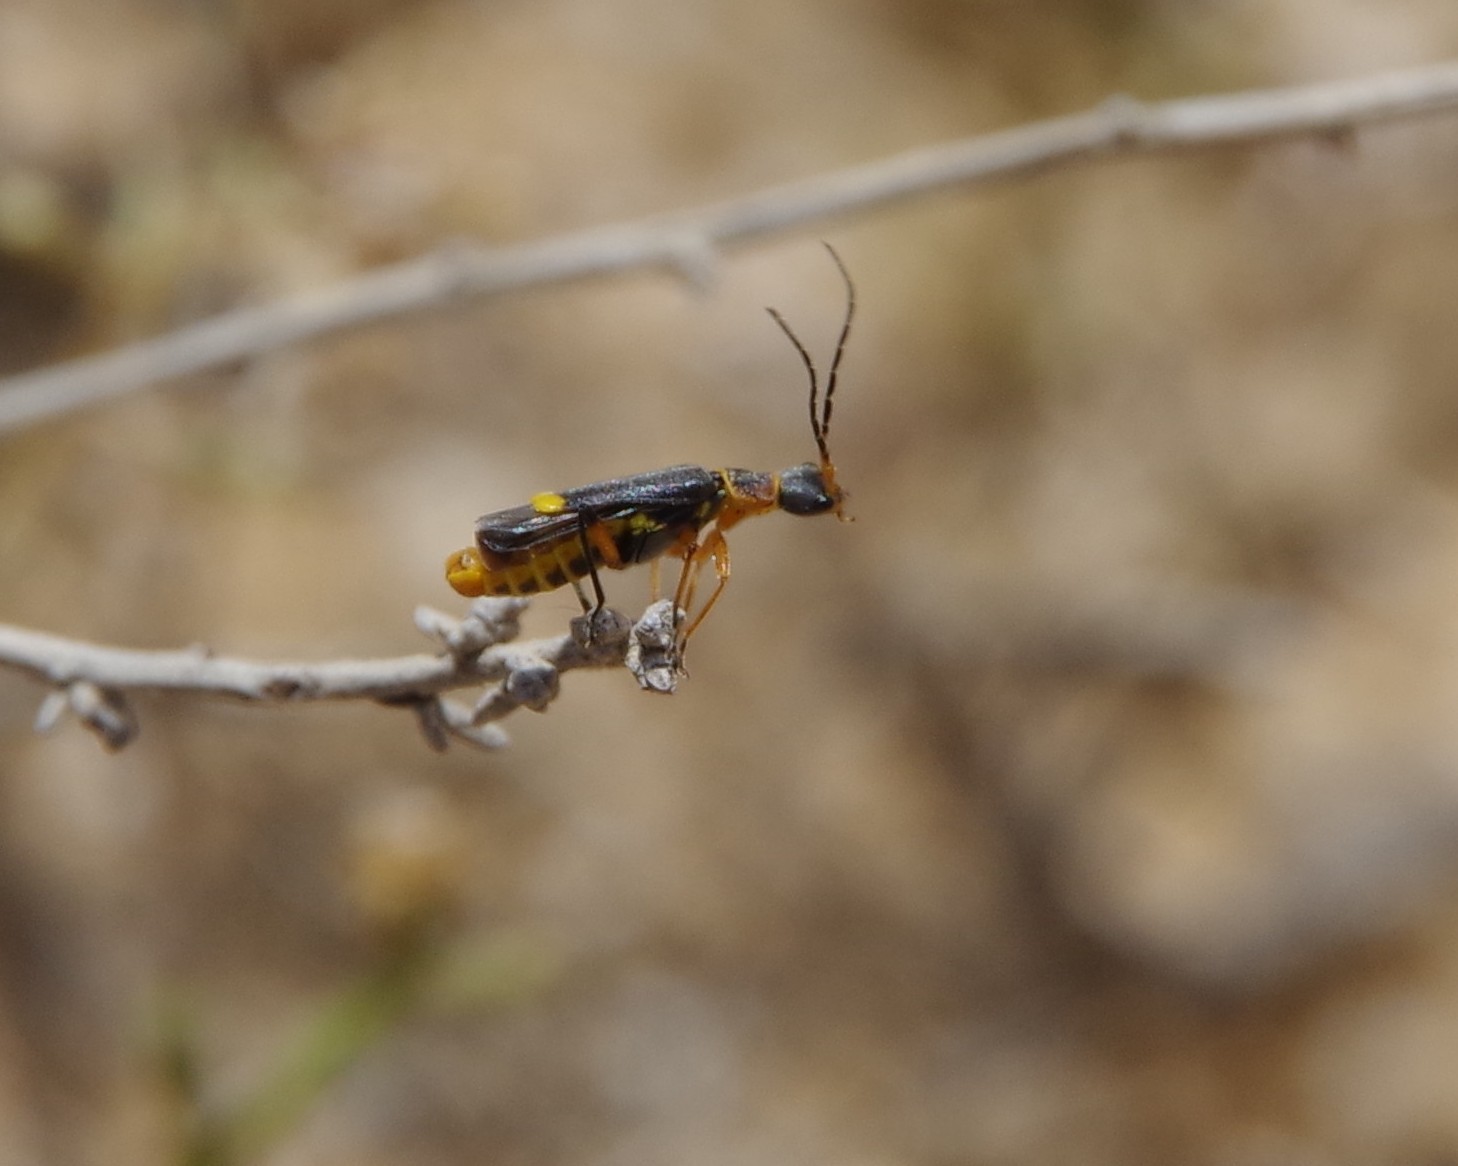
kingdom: Animalia
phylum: Arthropoda
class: Insecta
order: Coleoptera
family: Cantharidae
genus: Malthinus
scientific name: Malthinus conspicuus
